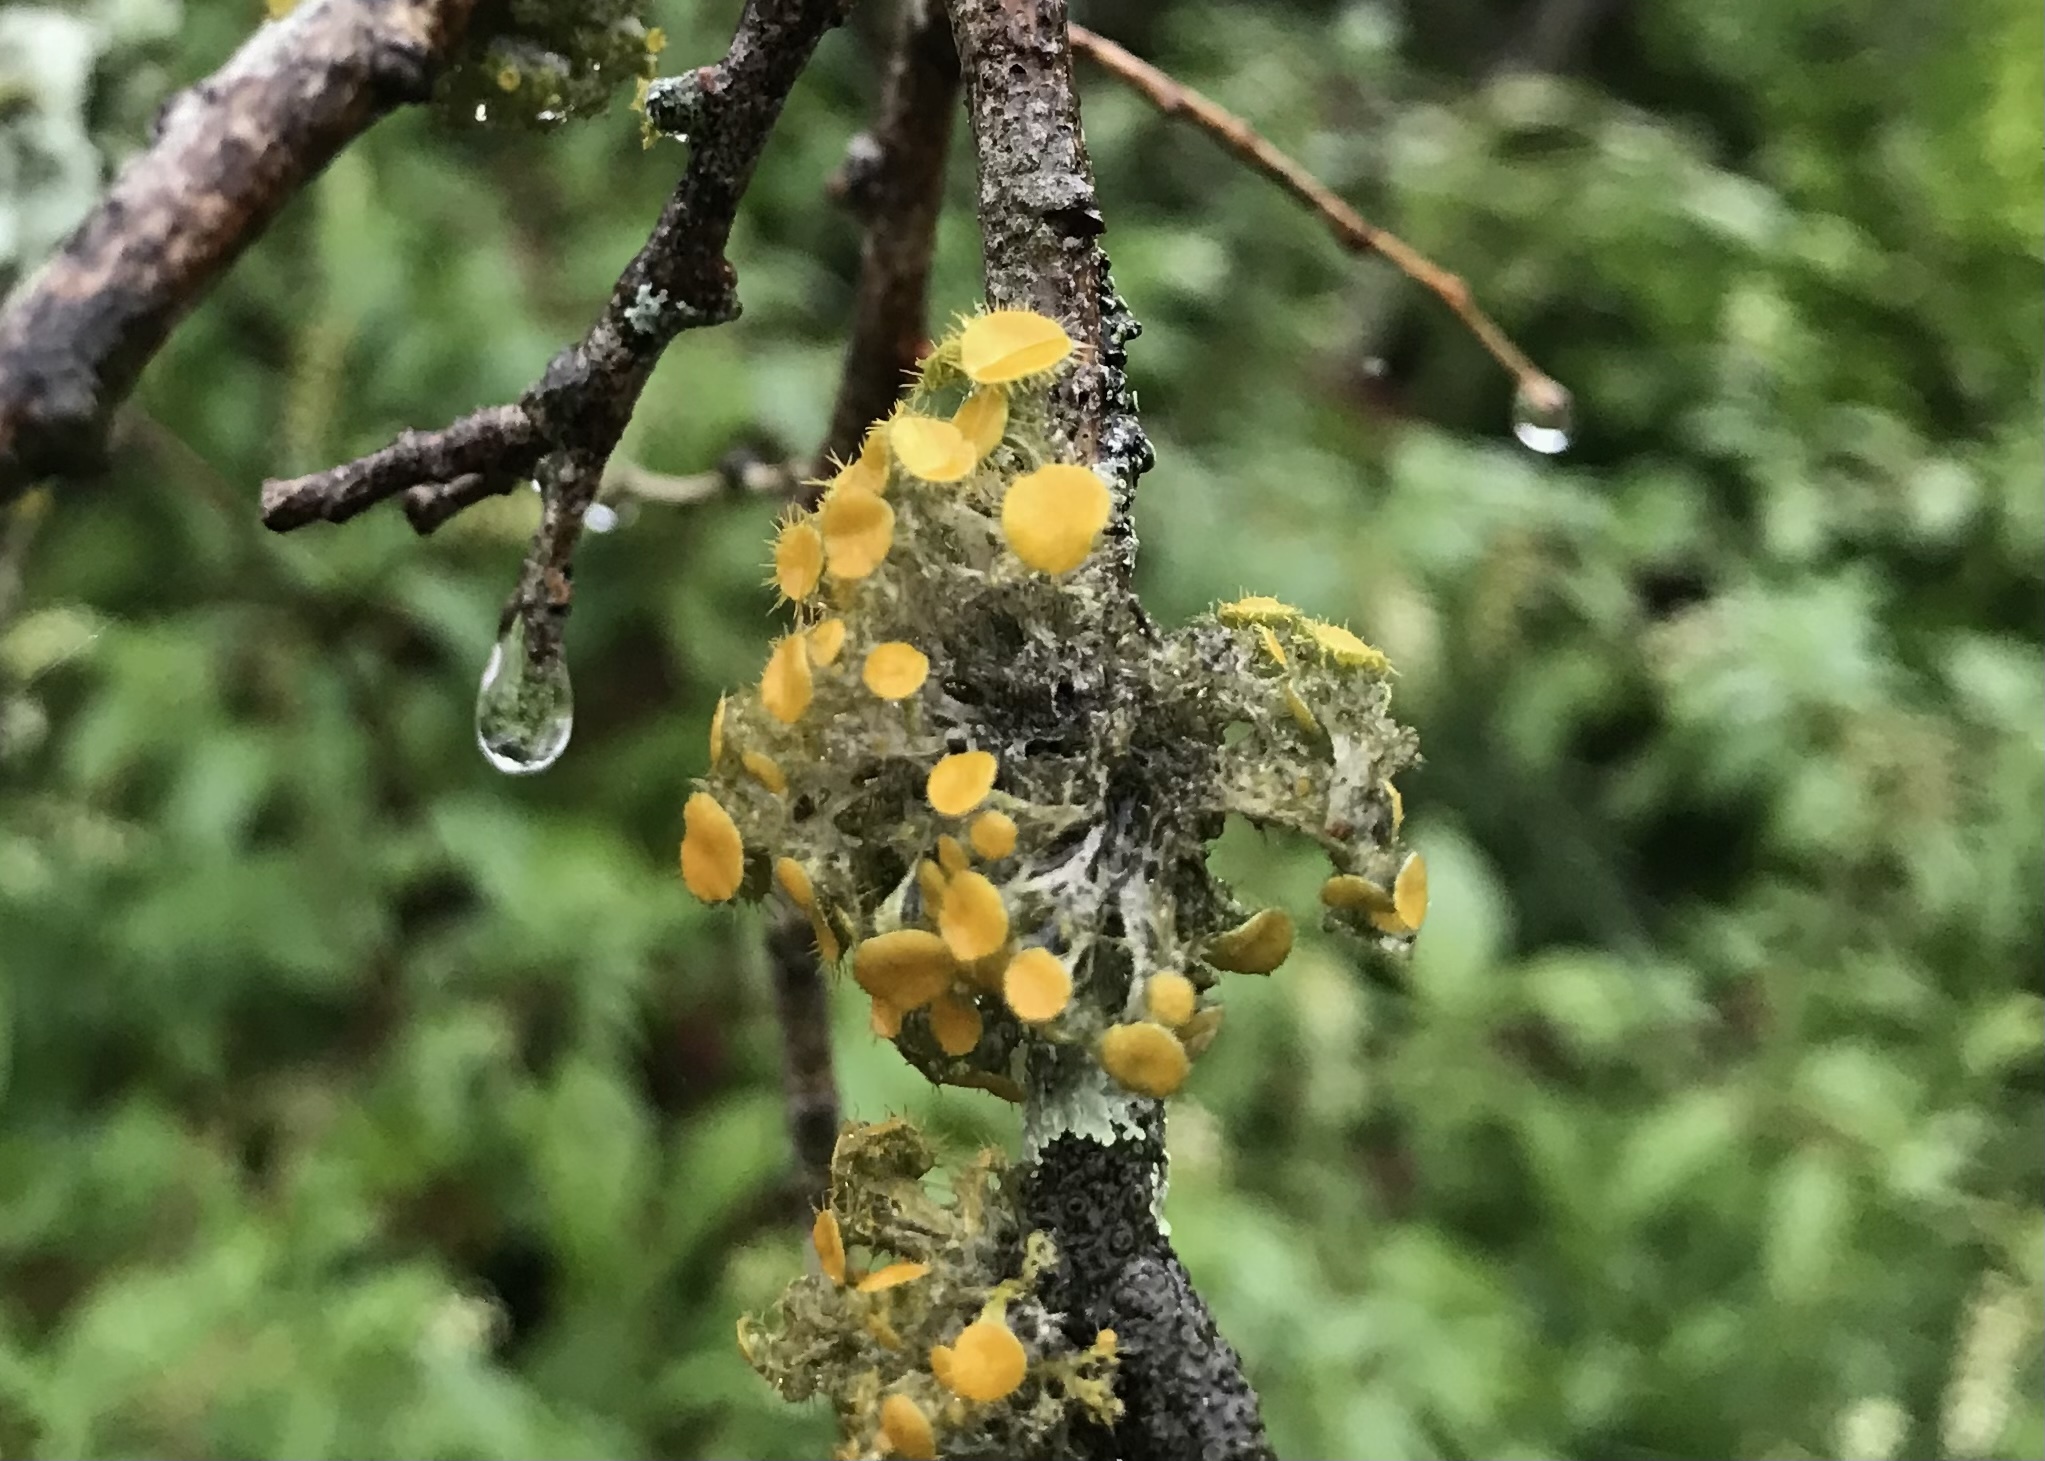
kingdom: Fungi
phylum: Ascomycota
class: Lecanoromycetes
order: Teloschistales
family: Teloschistaceae
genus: Niorma
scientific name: Niorma chrysophthalma
